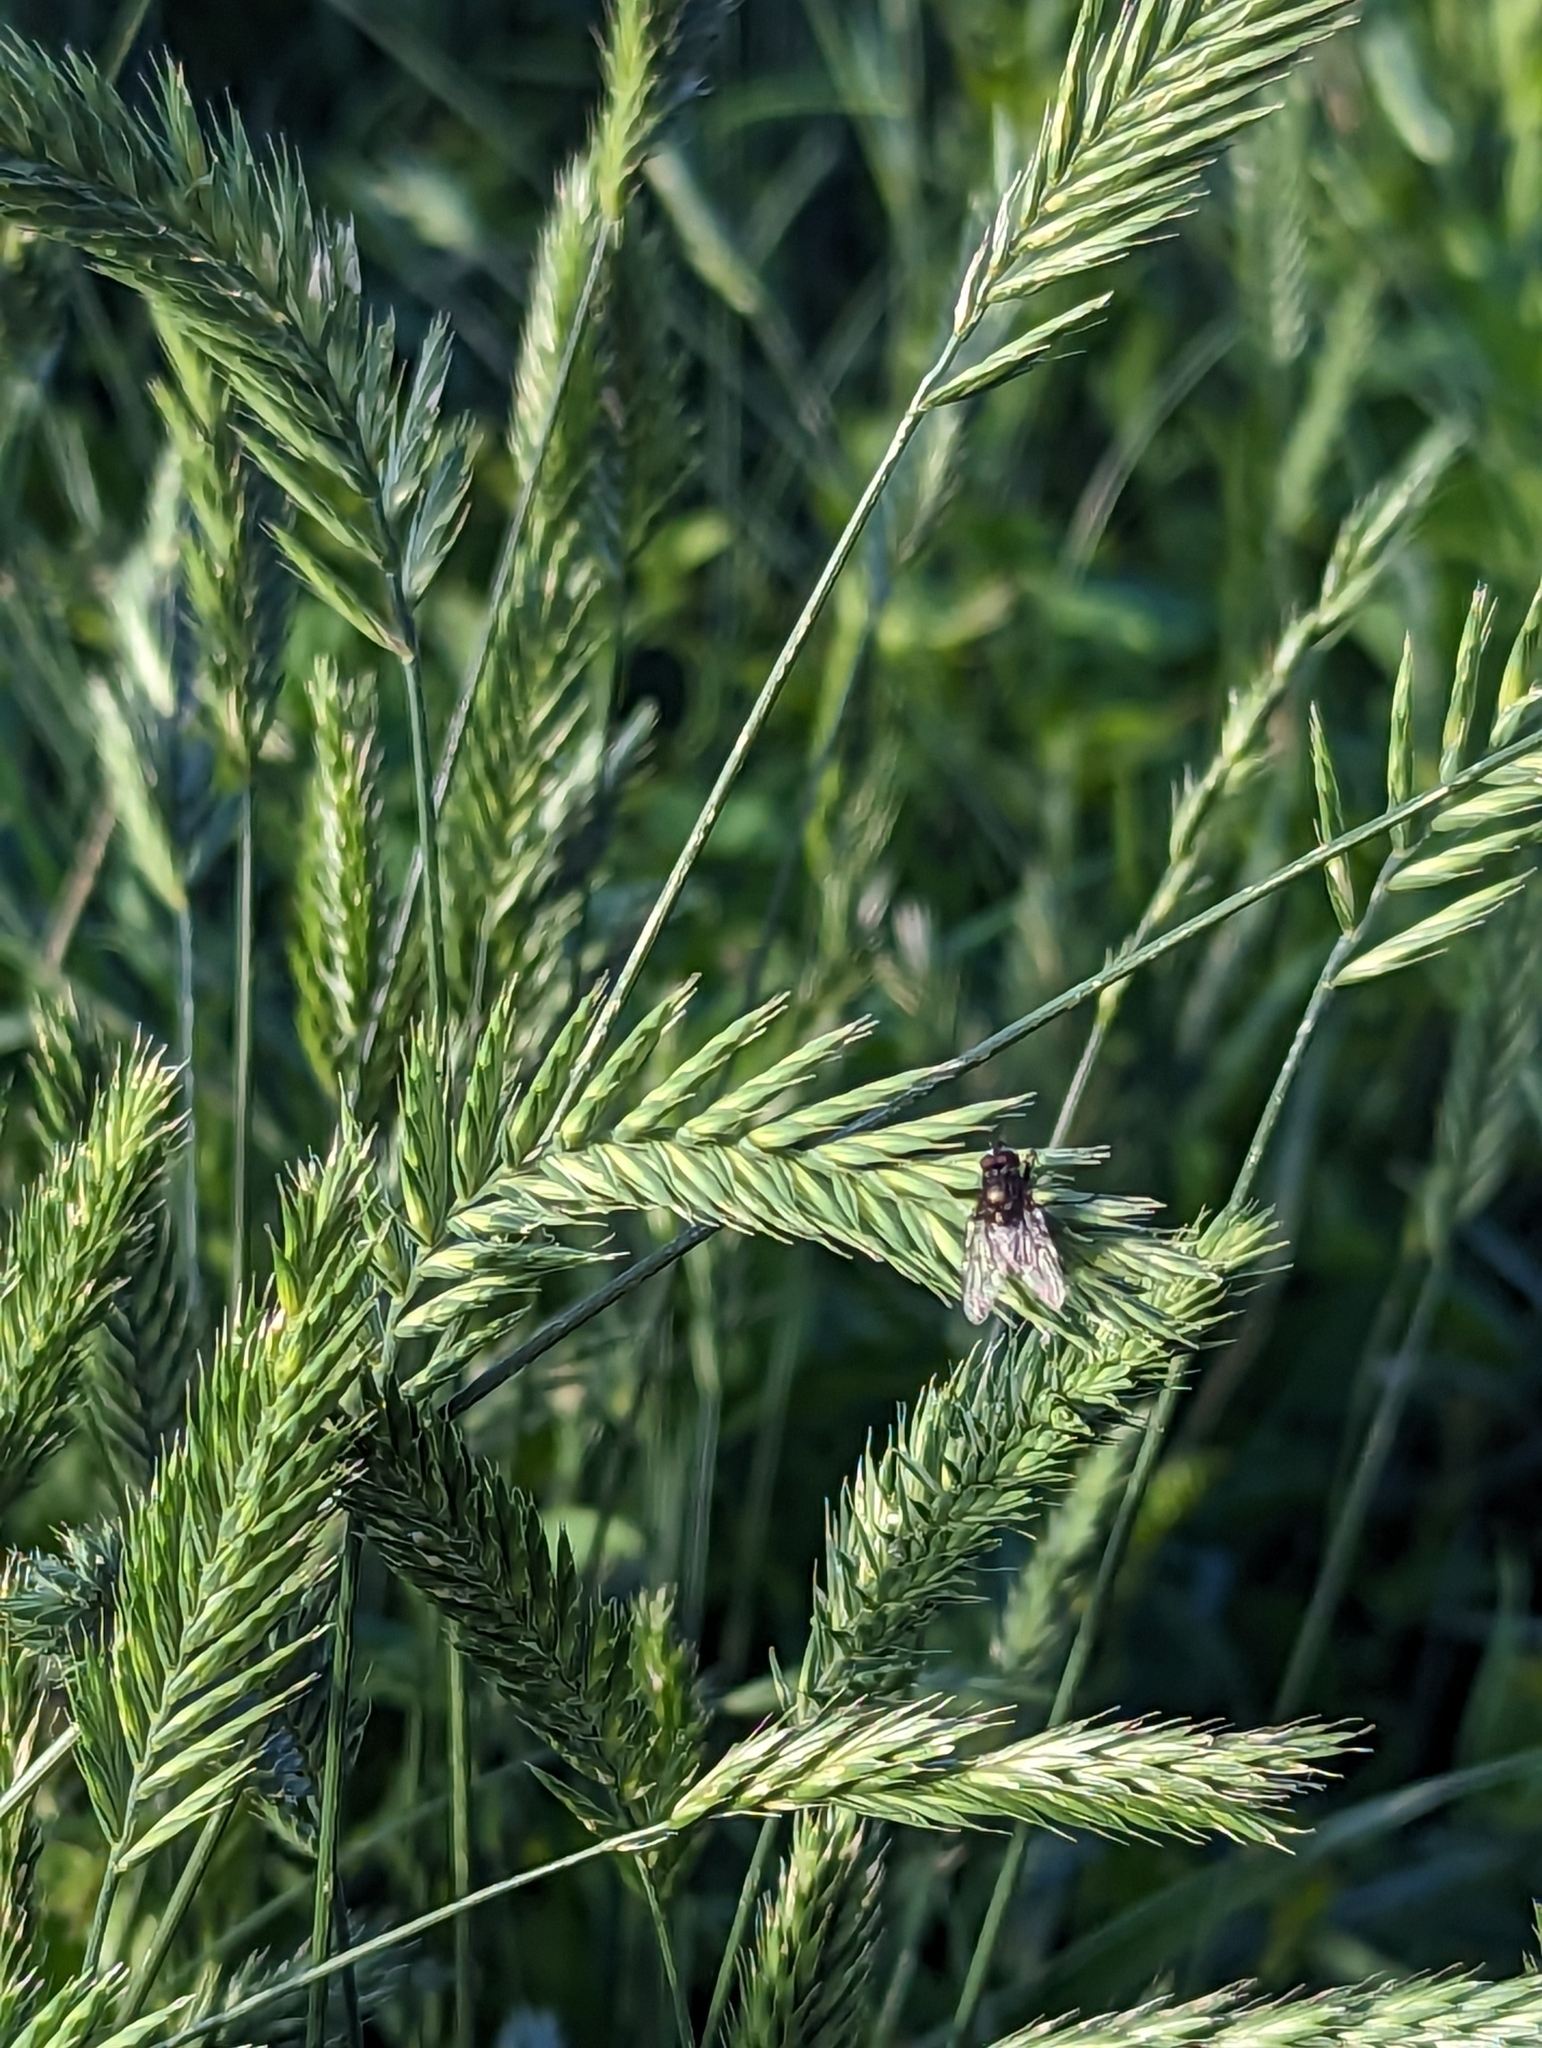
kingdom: Plantae
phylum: Tracheophyta
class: Liliopsida
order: Poales
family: Poaceae
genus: Agropyron
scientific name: Agropyron cristatum
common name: Crested wheatgrass
